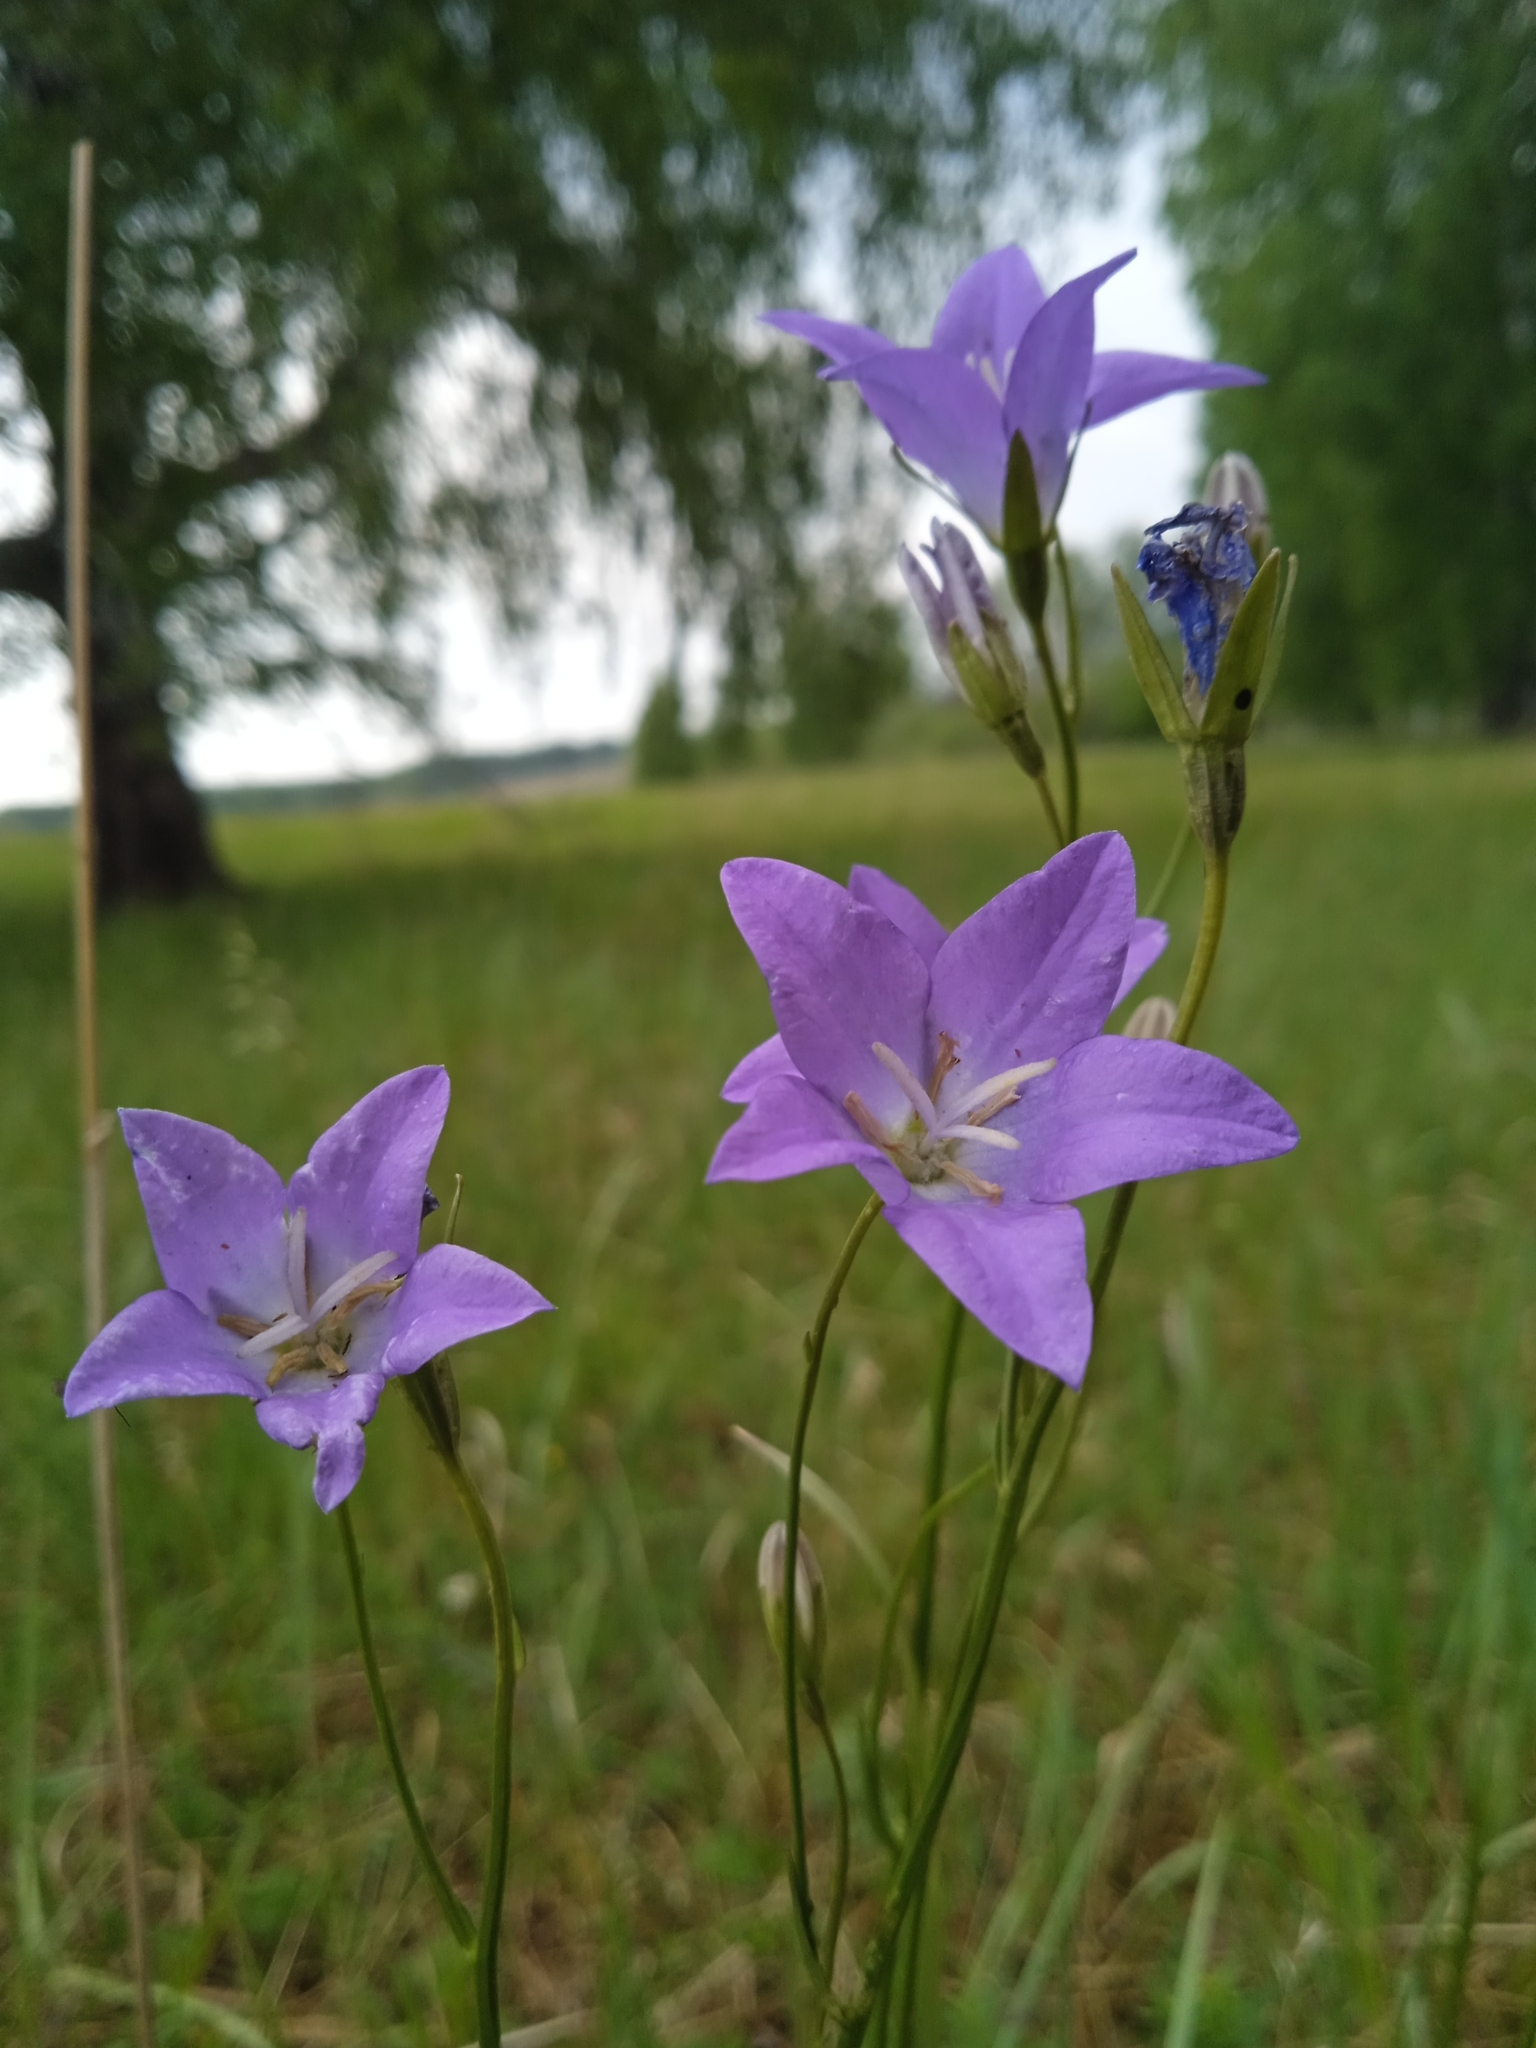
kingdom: Plantae
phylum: Tracheophyta
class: Magnoliopsida
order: Asterales
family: Campanulaceae
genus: Campanula
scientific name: Campanula stevenii
